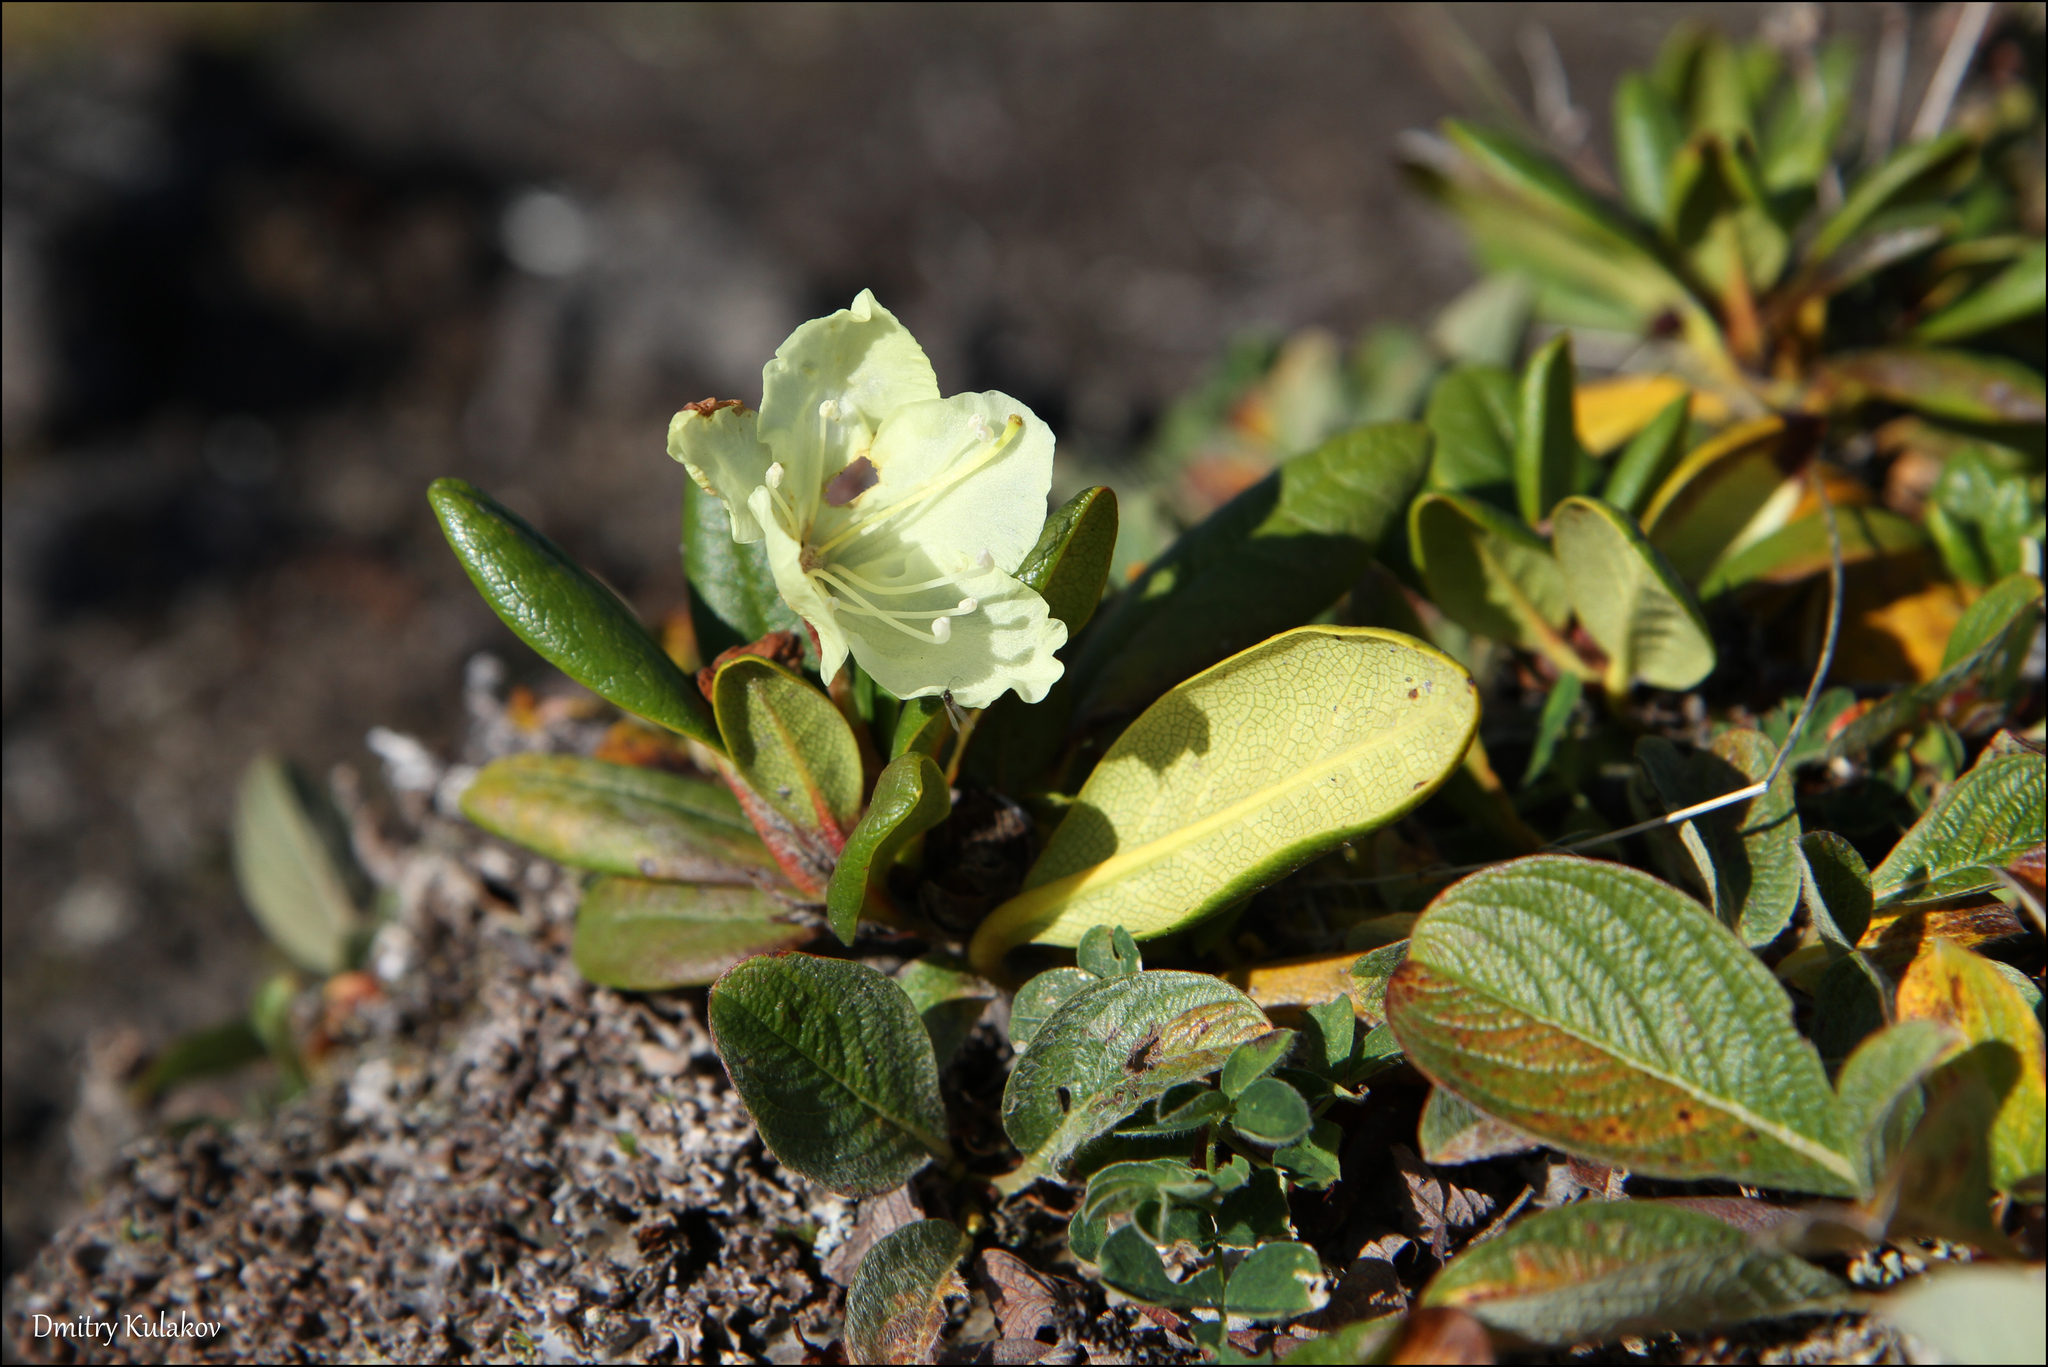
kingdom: Plantae
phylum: Tracheophyta
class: Magnoliopsida
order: Ericales
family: Ericaceae
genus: Rhododendron
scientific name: Rhododendron aureum
